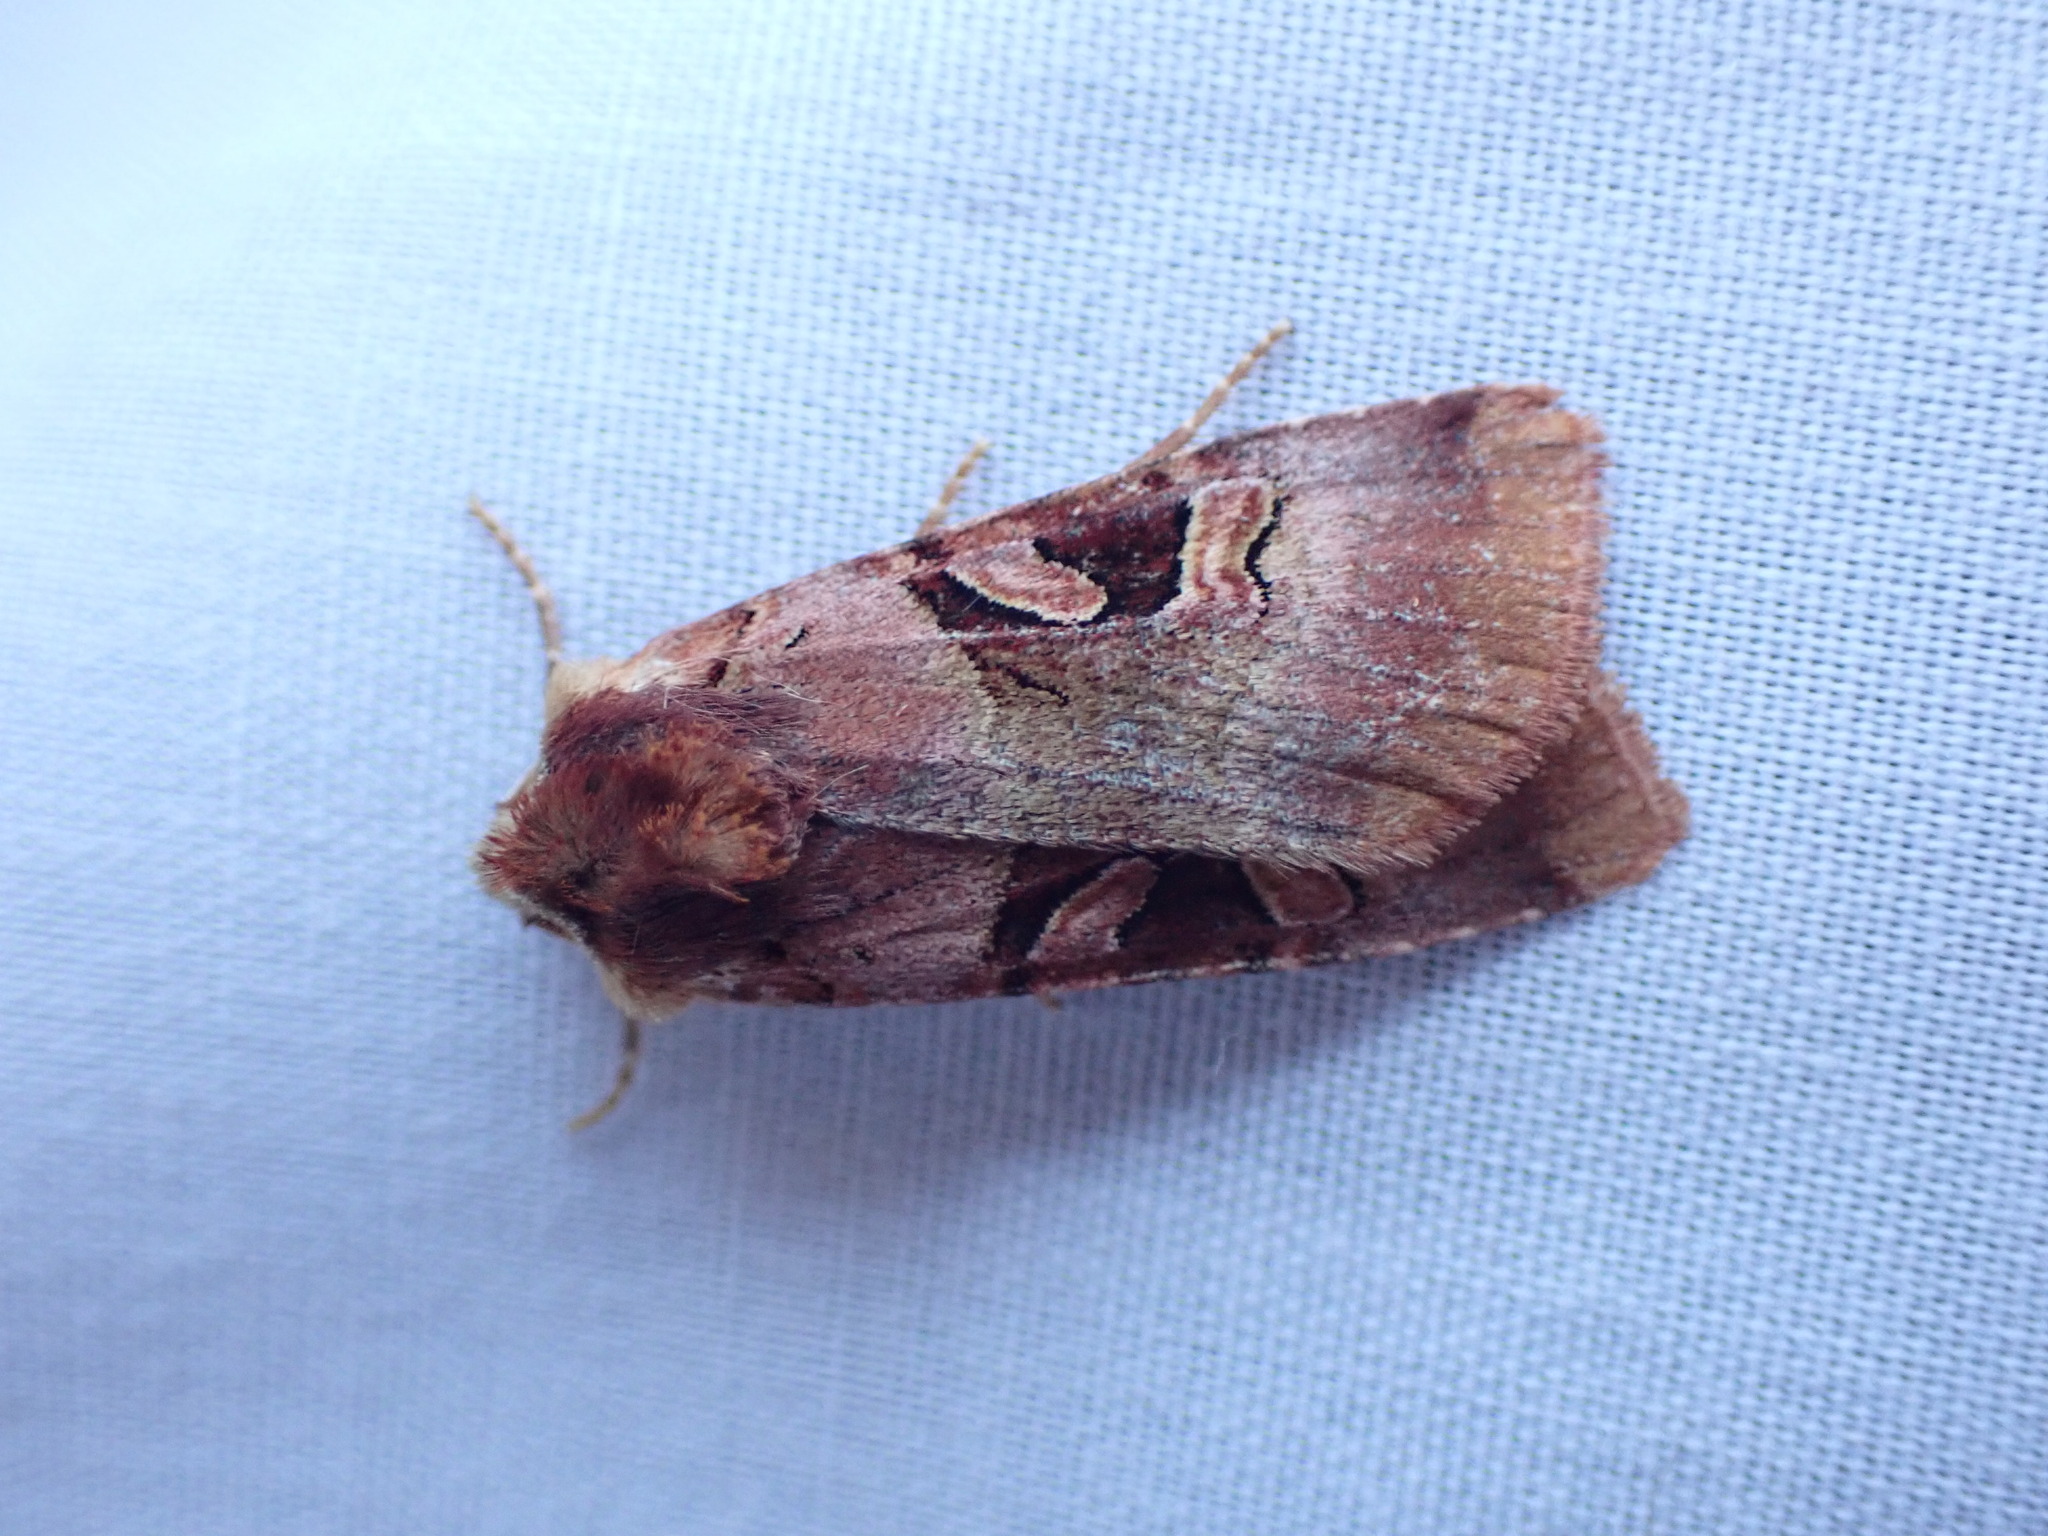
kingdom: Animalia
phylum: Arthropoda
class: Insecta
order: Lepidoptera
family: Noctuidae
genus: Xestia
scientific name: Xestia oblata
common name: Rosy dart
